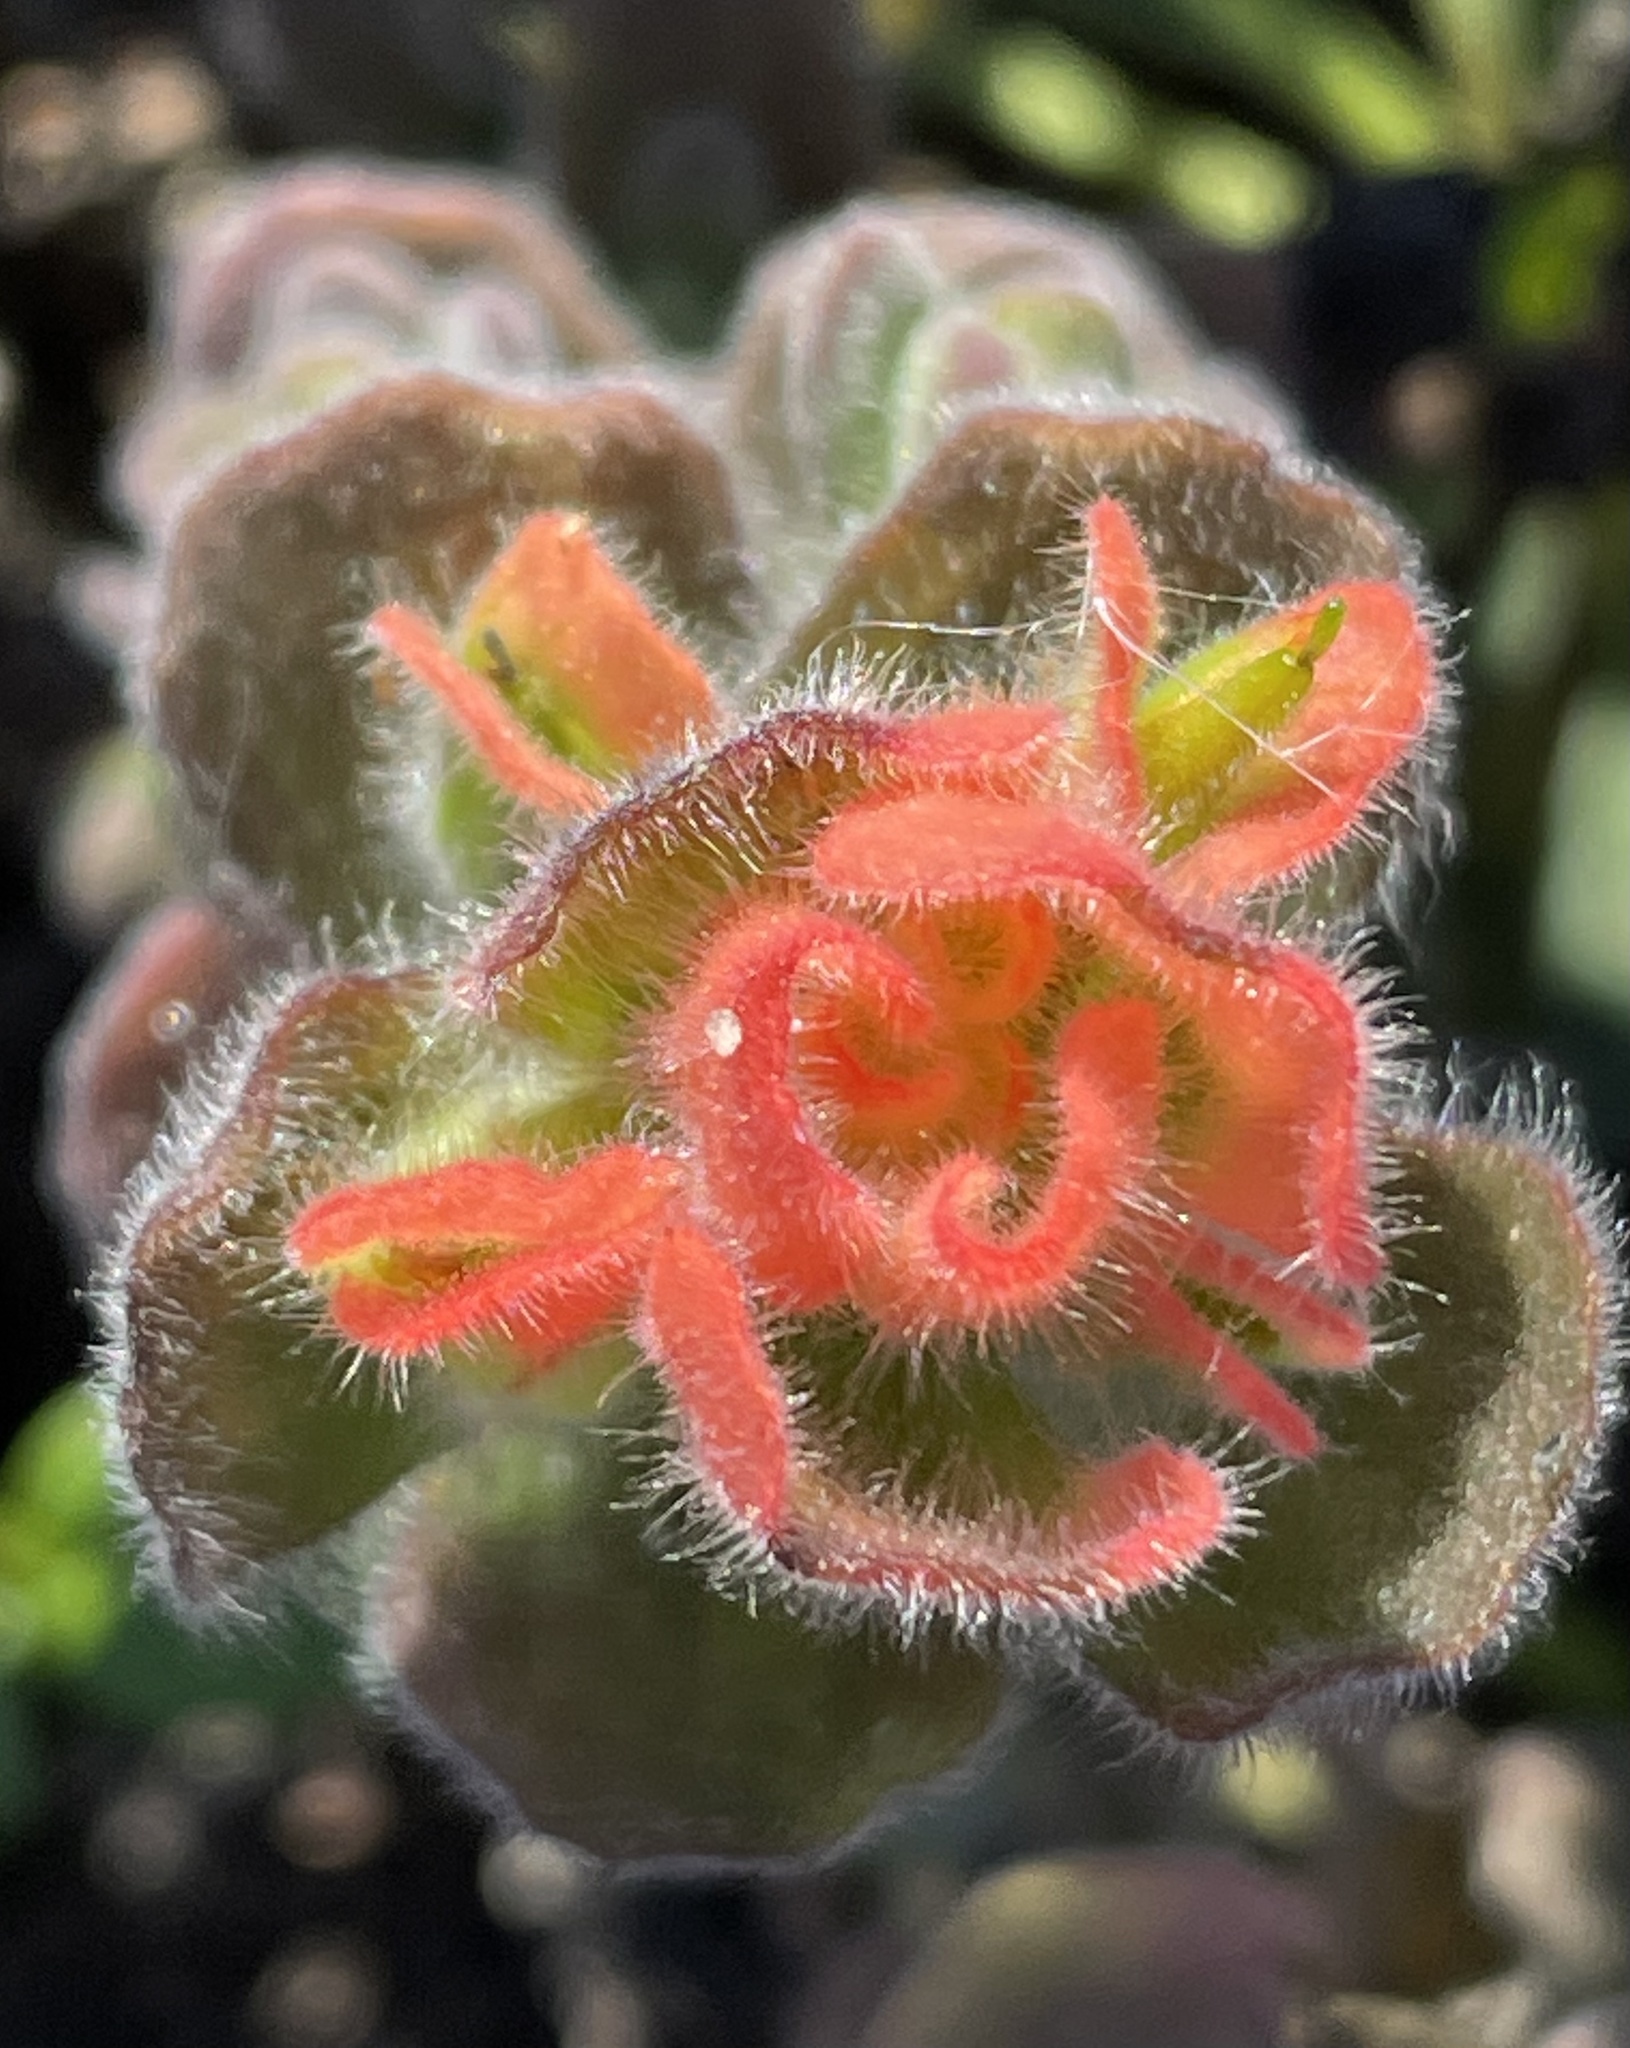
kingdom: Plantae
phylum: Tracheophyta
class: Magnoliopsida
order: Lamiales
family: Orobanchaceae
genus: Castilleja
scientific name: Castilleja latifolia
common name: Monterey indian paintbrush
